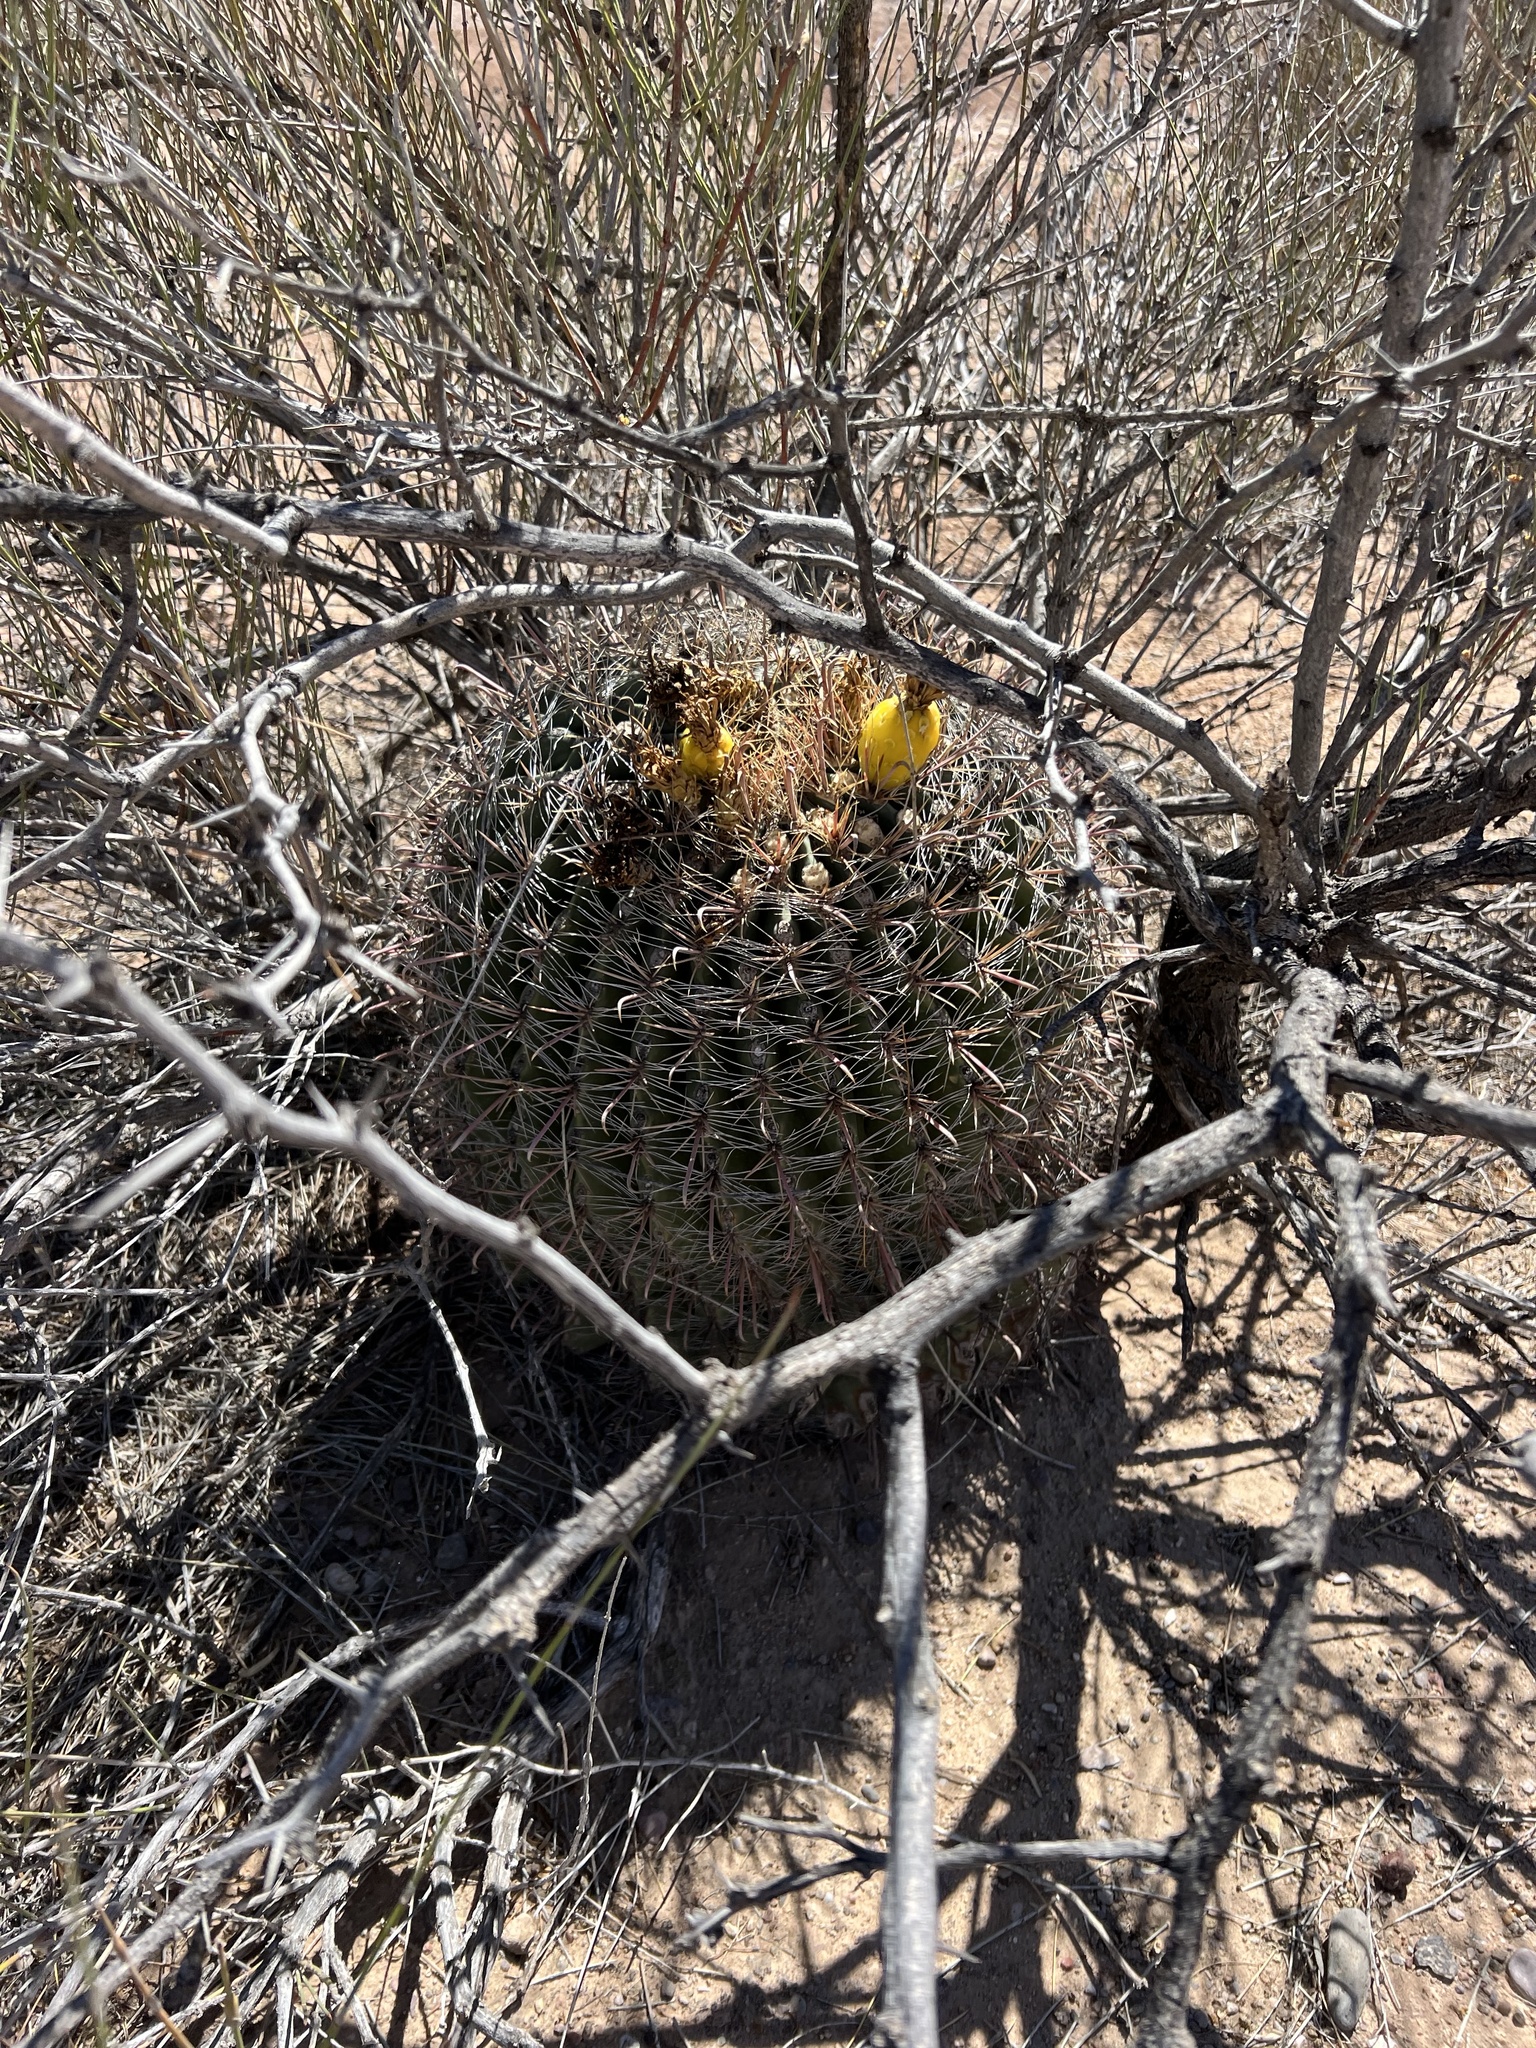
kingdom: Plantae
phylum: Tracheophyta
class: Magnoliopsida
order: Caryophyllales
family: Cactaceae
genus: Ferocactus
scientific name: Ferocactus wislizeni
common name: Candy barrel cactus
